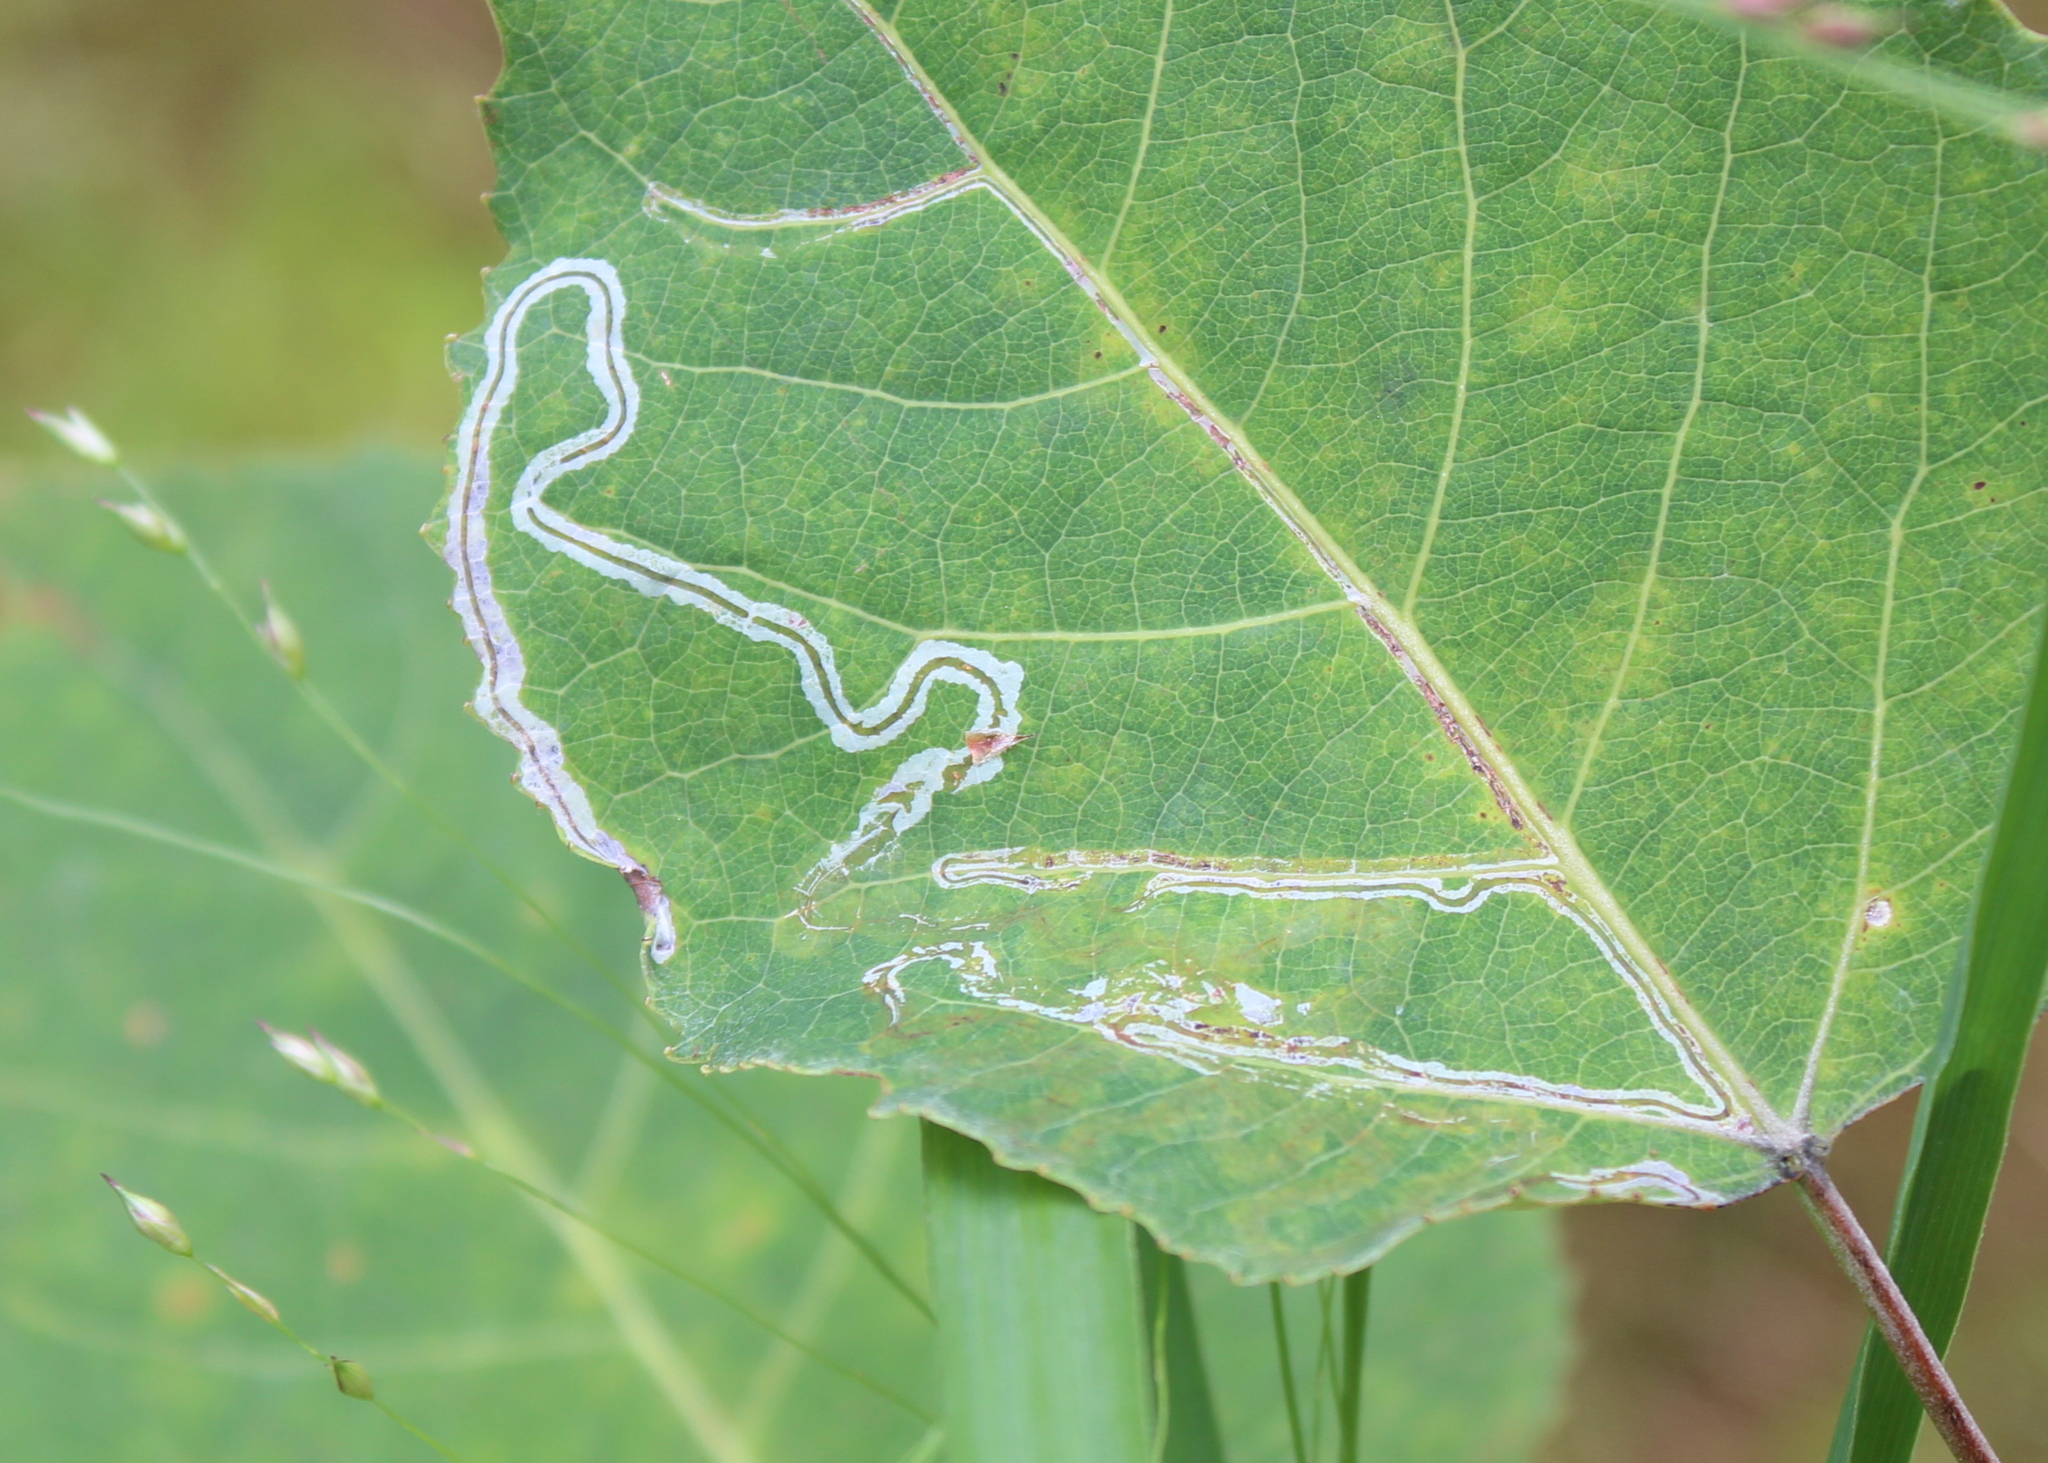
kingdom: Animalia
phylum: Arthropoda
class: Insecta
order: Lepidoptera
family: Gracillariidae
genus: Phyllocnistis
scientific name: Phyllocnistis populiella
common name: Aspen serpentine leafminer moth
